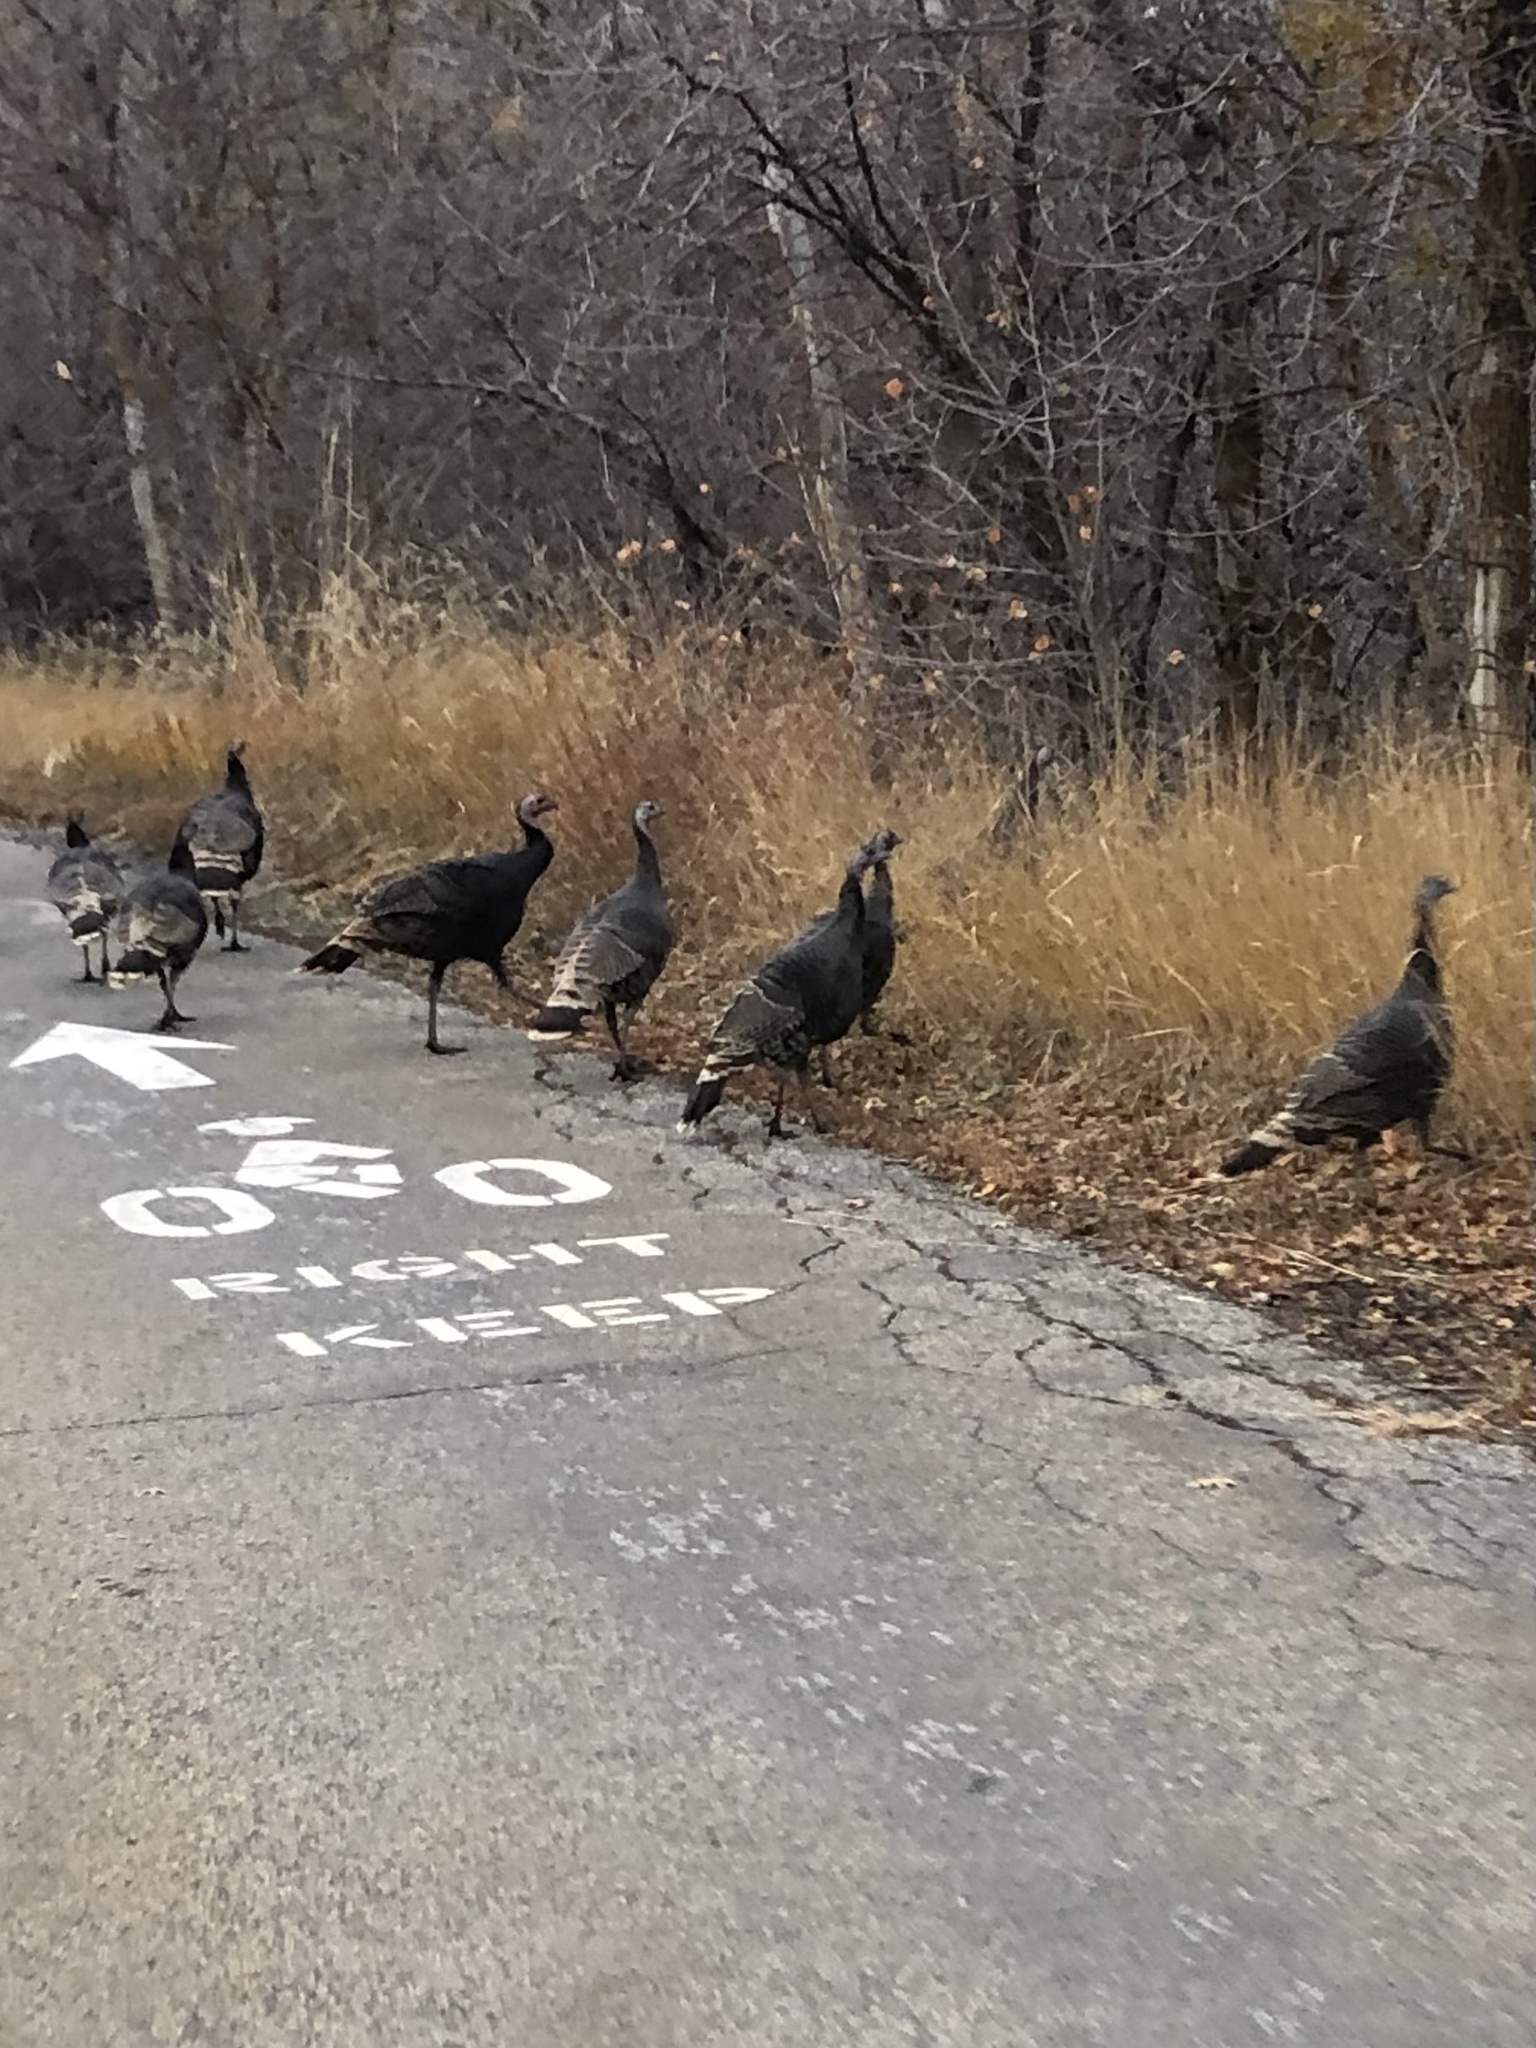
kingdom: Animalia
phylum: Chordata
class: Aves
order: Galliformes
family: Phasianidae
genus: Meleagris
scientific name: Meleagris gallopavo
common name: Wild turkey
